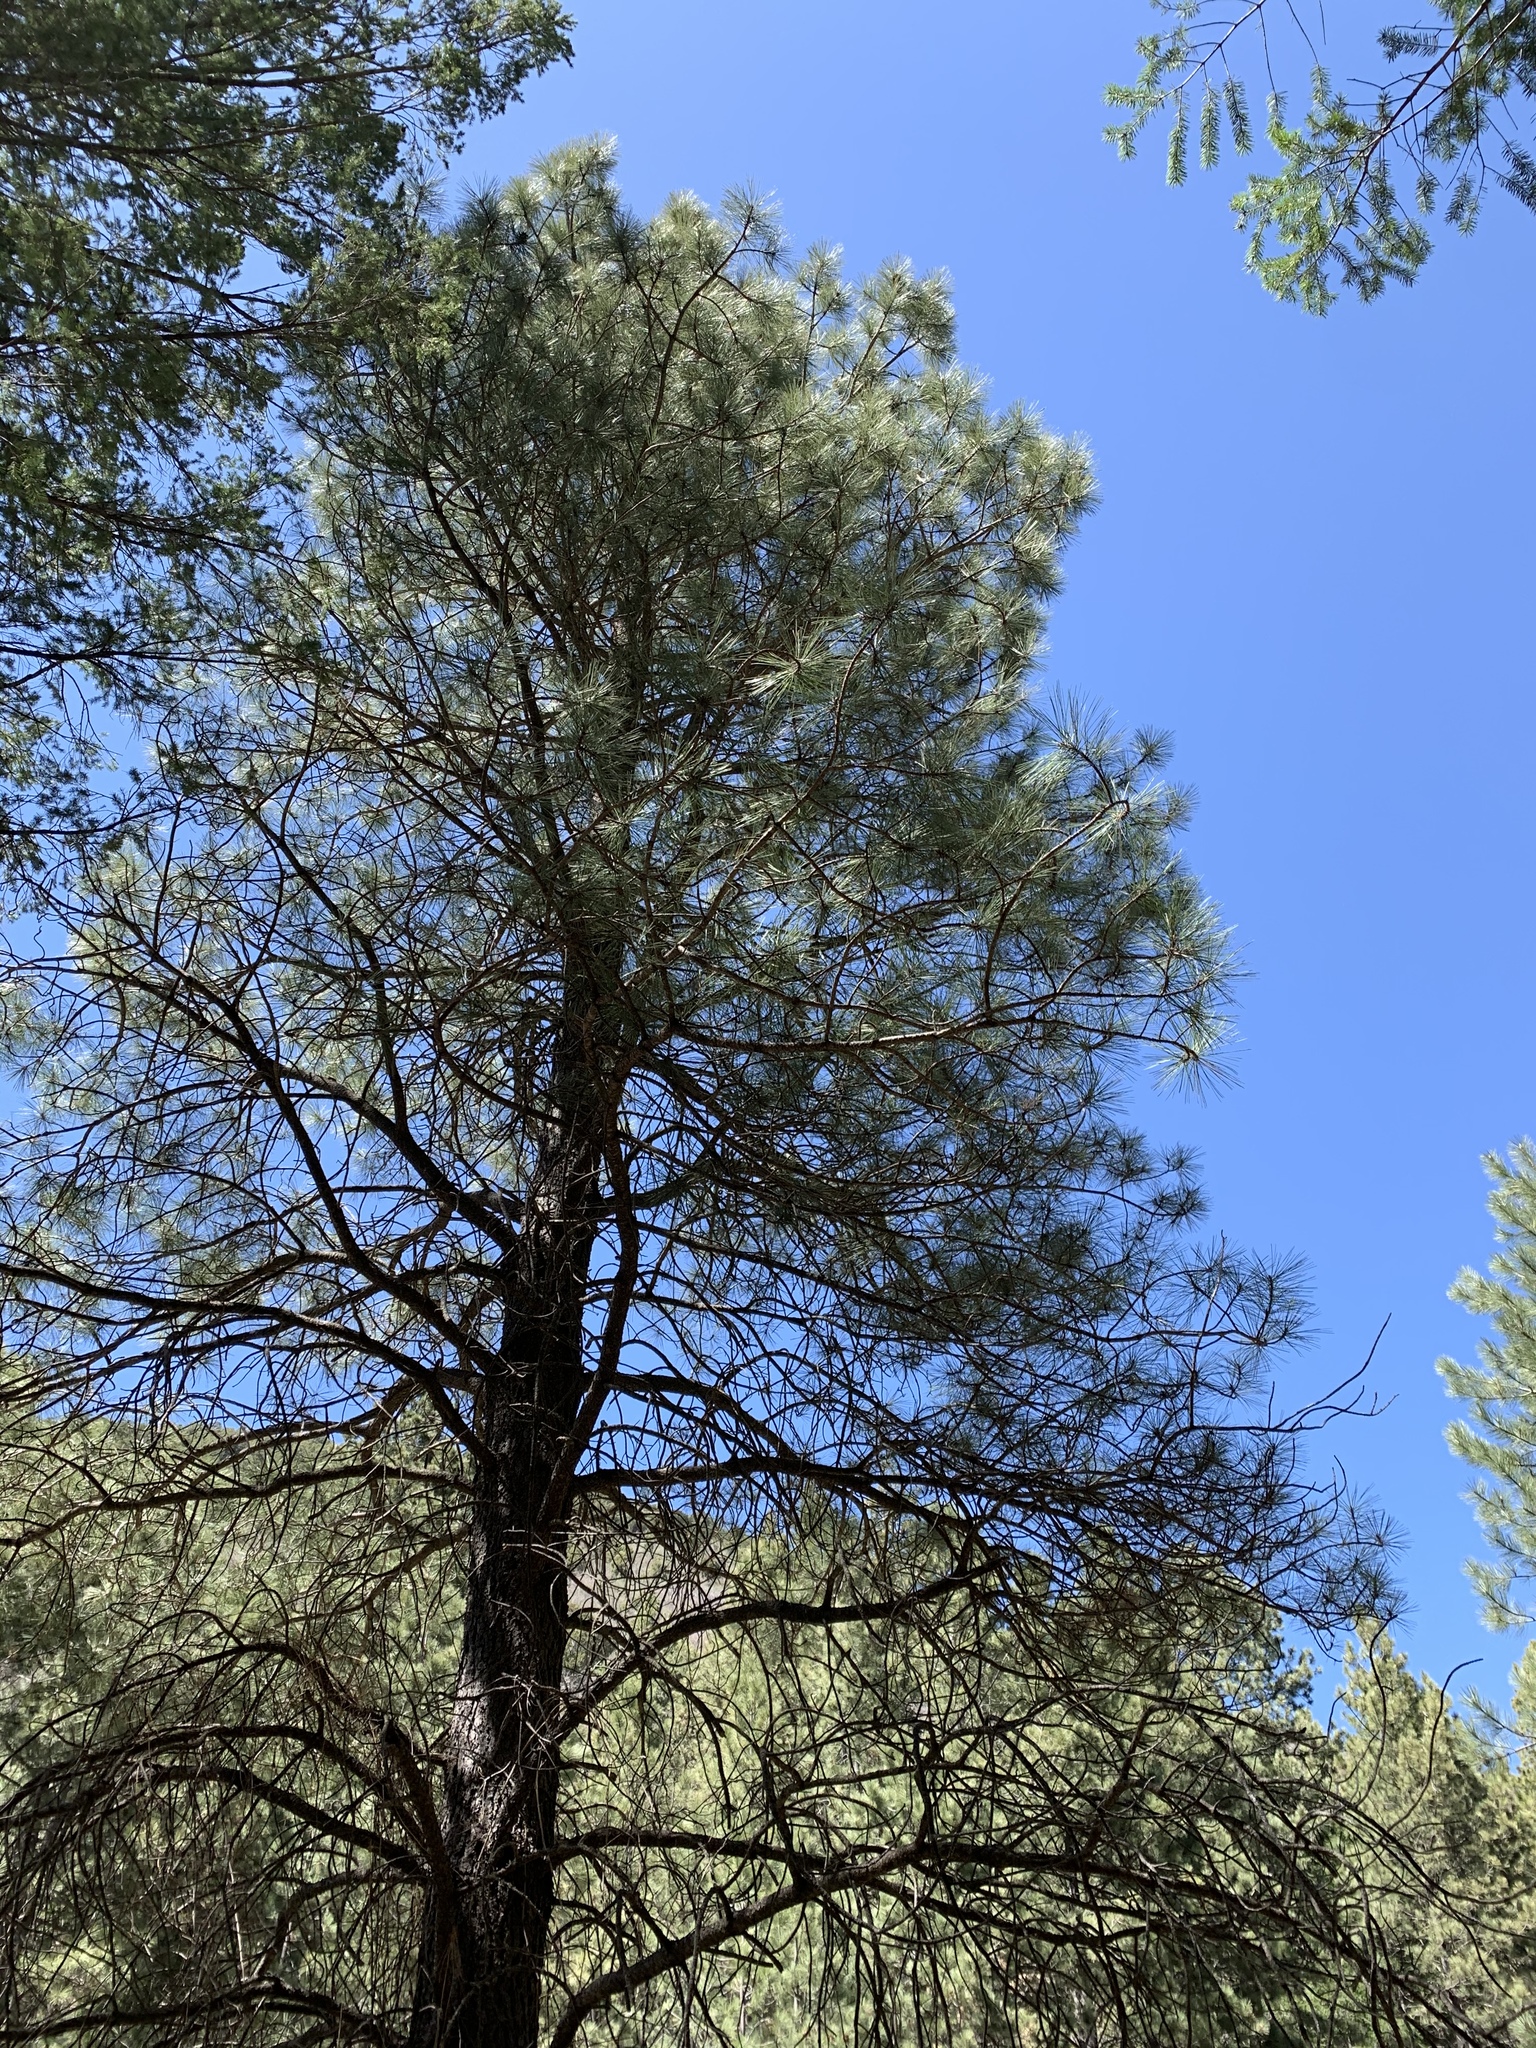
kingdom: Plantae
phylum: Tracheophyta
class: Pinopsida
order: Pinales
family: Pinaceae
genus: Pinus
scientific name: Pinus ponderosa
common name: Western yellow-pine
